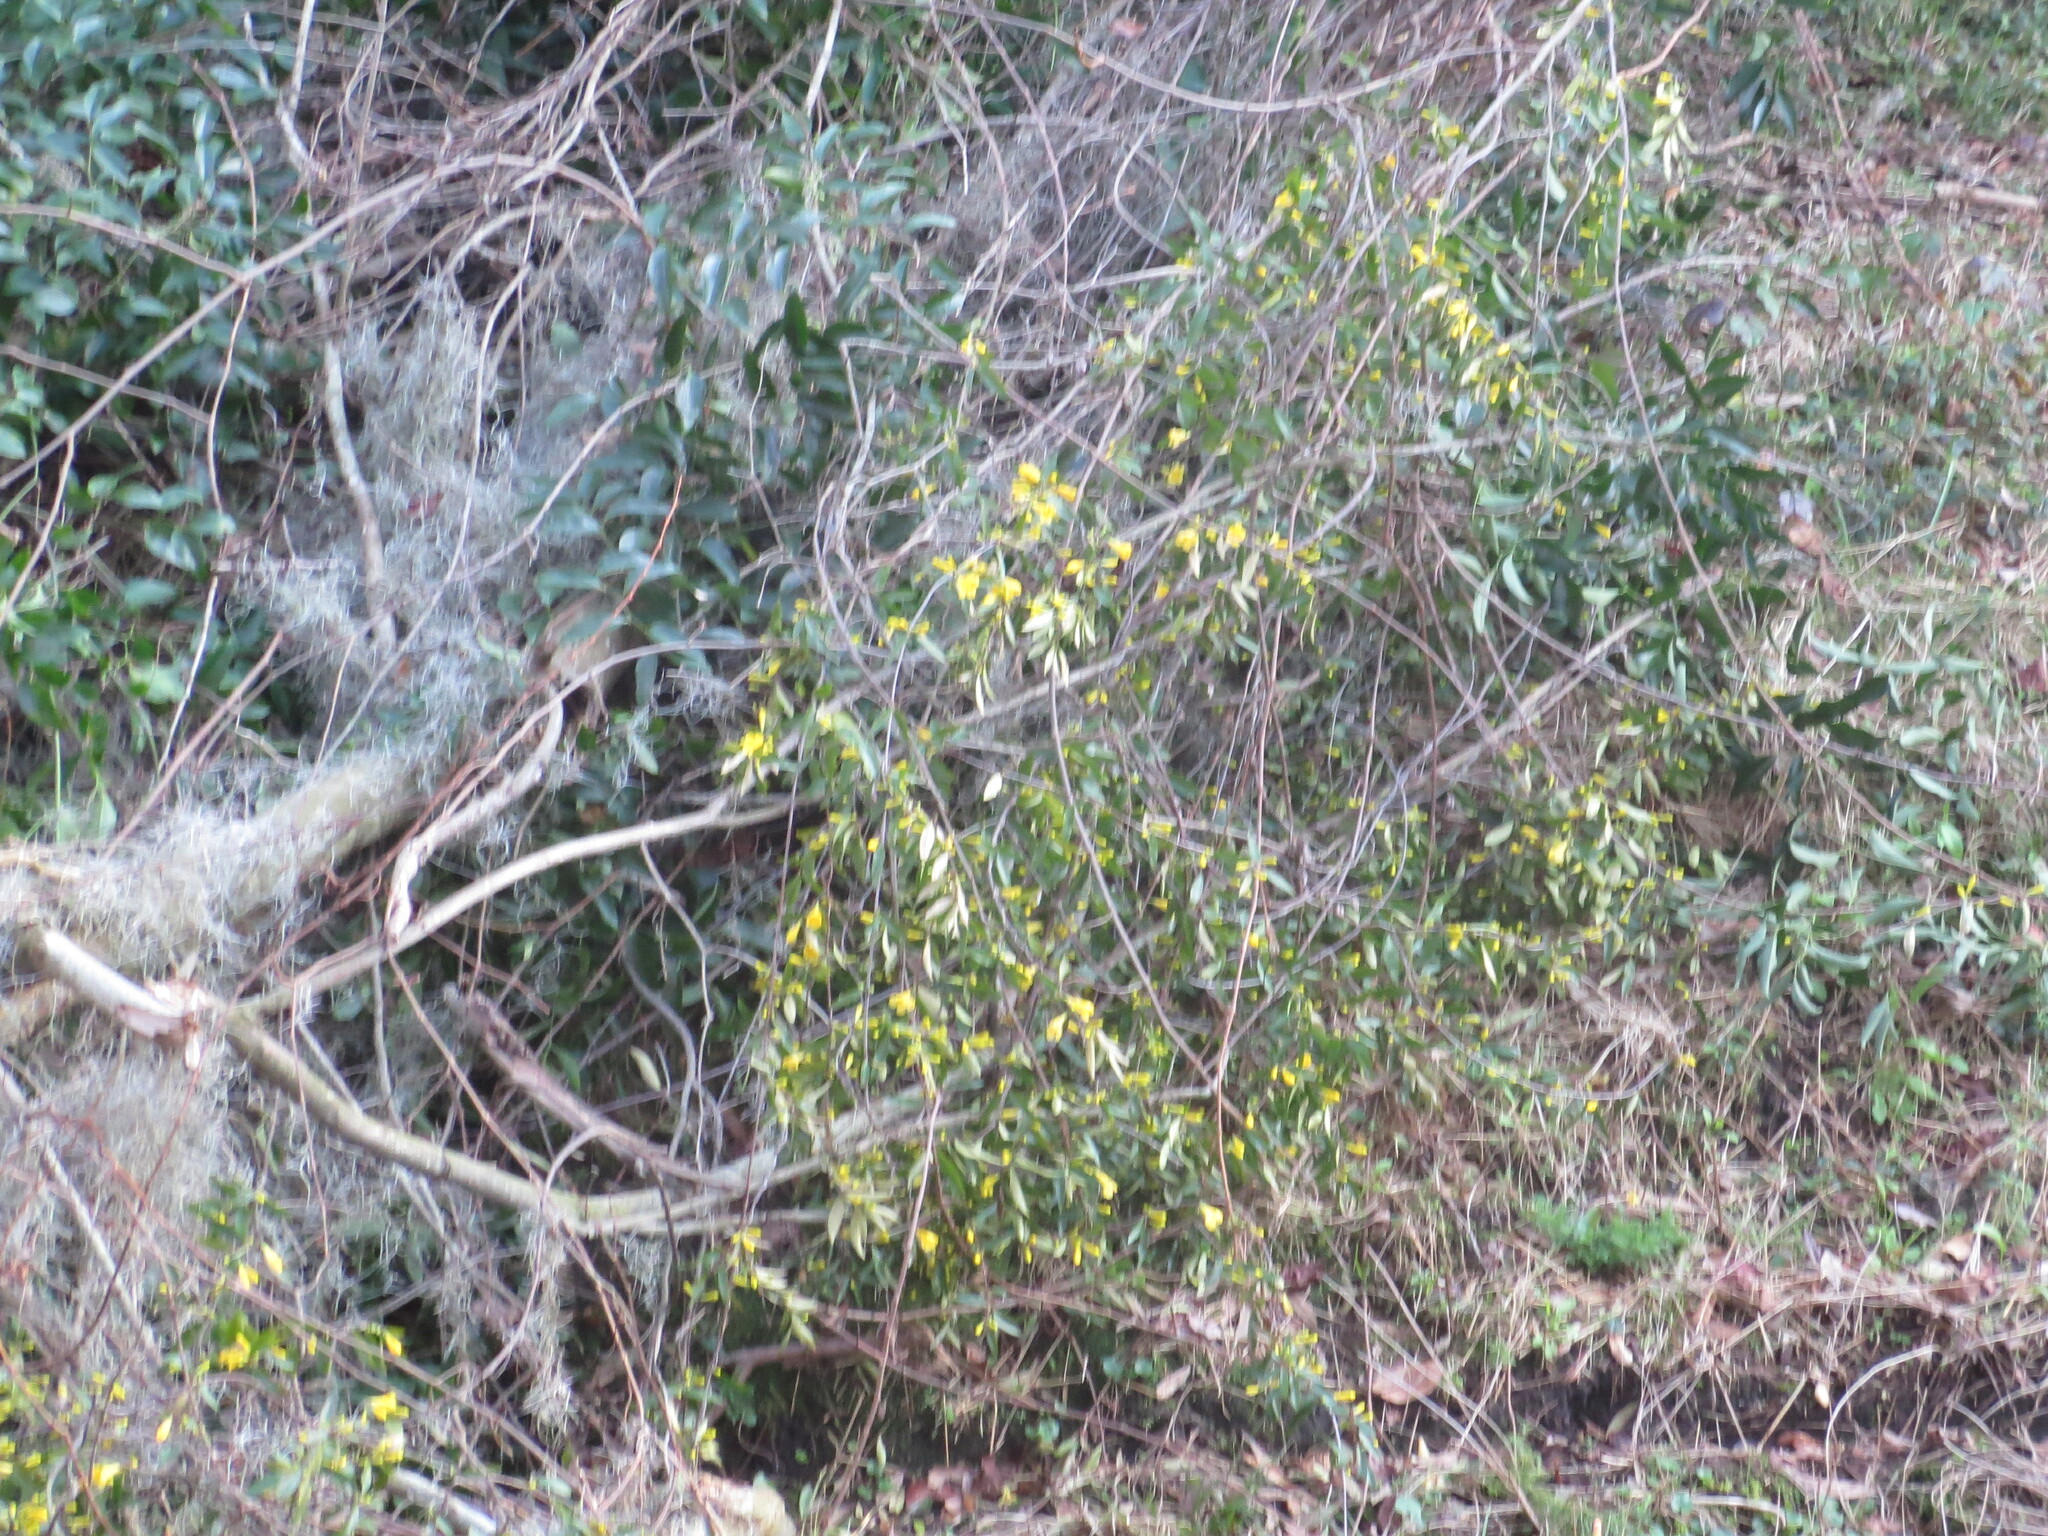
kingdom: Plantae
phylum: Tracheophyta
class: Magnoliopsida
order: Gentianales
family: Gelsemiaceae
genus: Gelsemium
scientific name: Gelsemium sempervirens
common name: Carolina-jasmine
